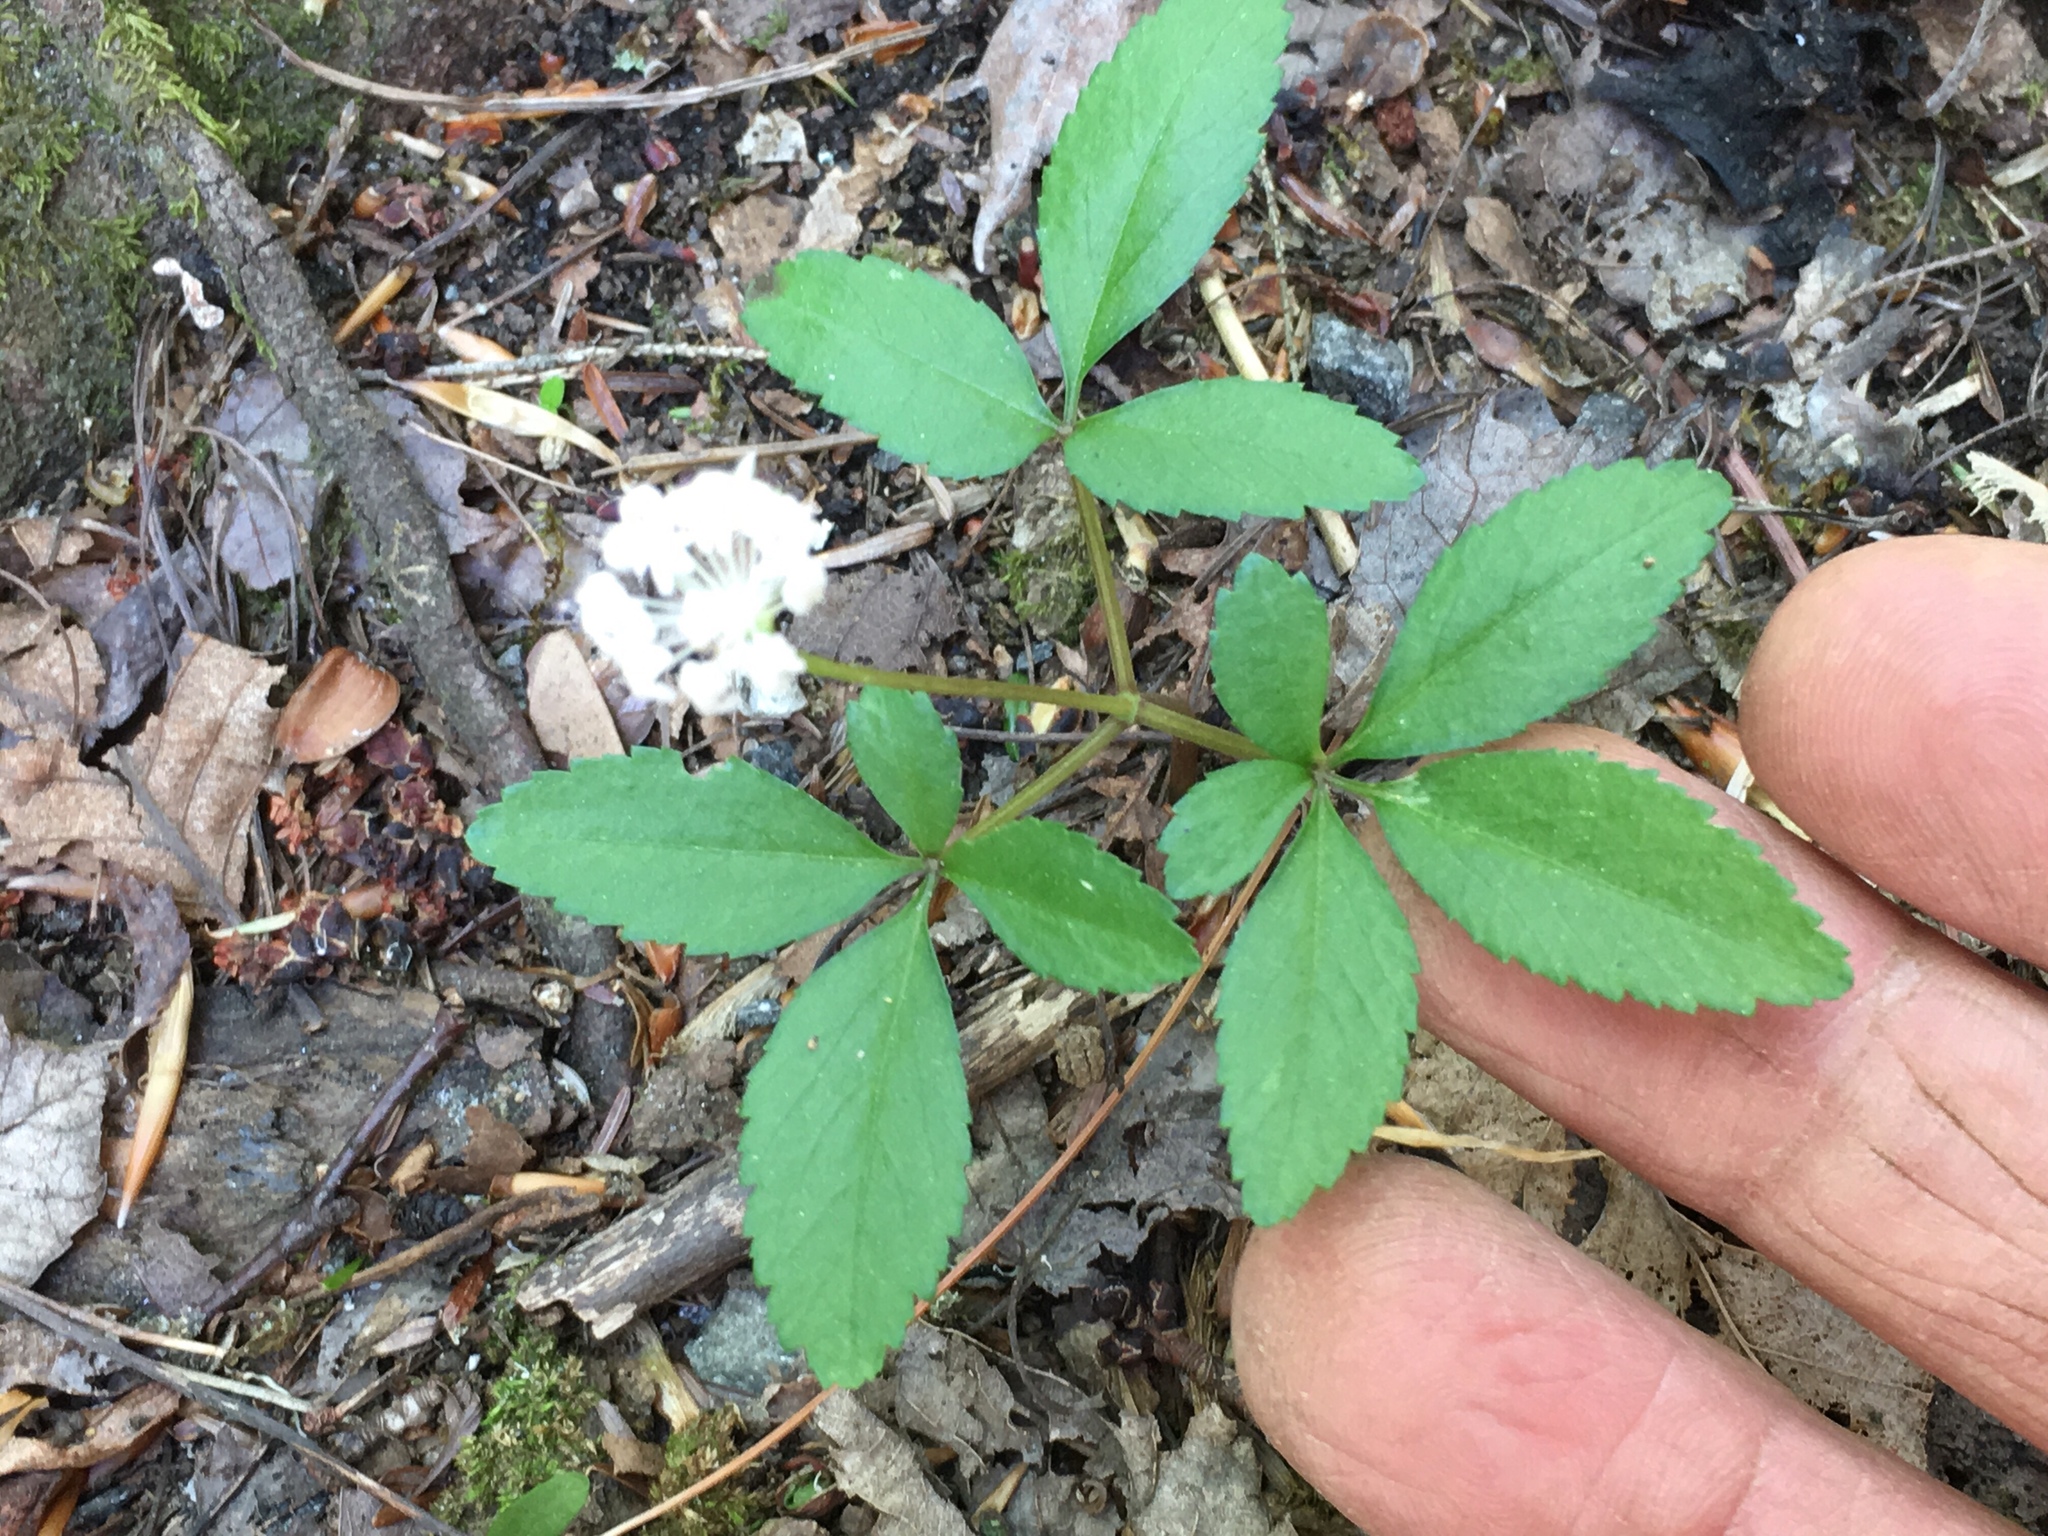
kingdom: Plantae
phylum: Tracheophyta
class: Magnoliopsida
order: Apiales
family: Araliaceae
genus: Panax
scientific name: Panax trifolius
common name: Dwarf ginseng
